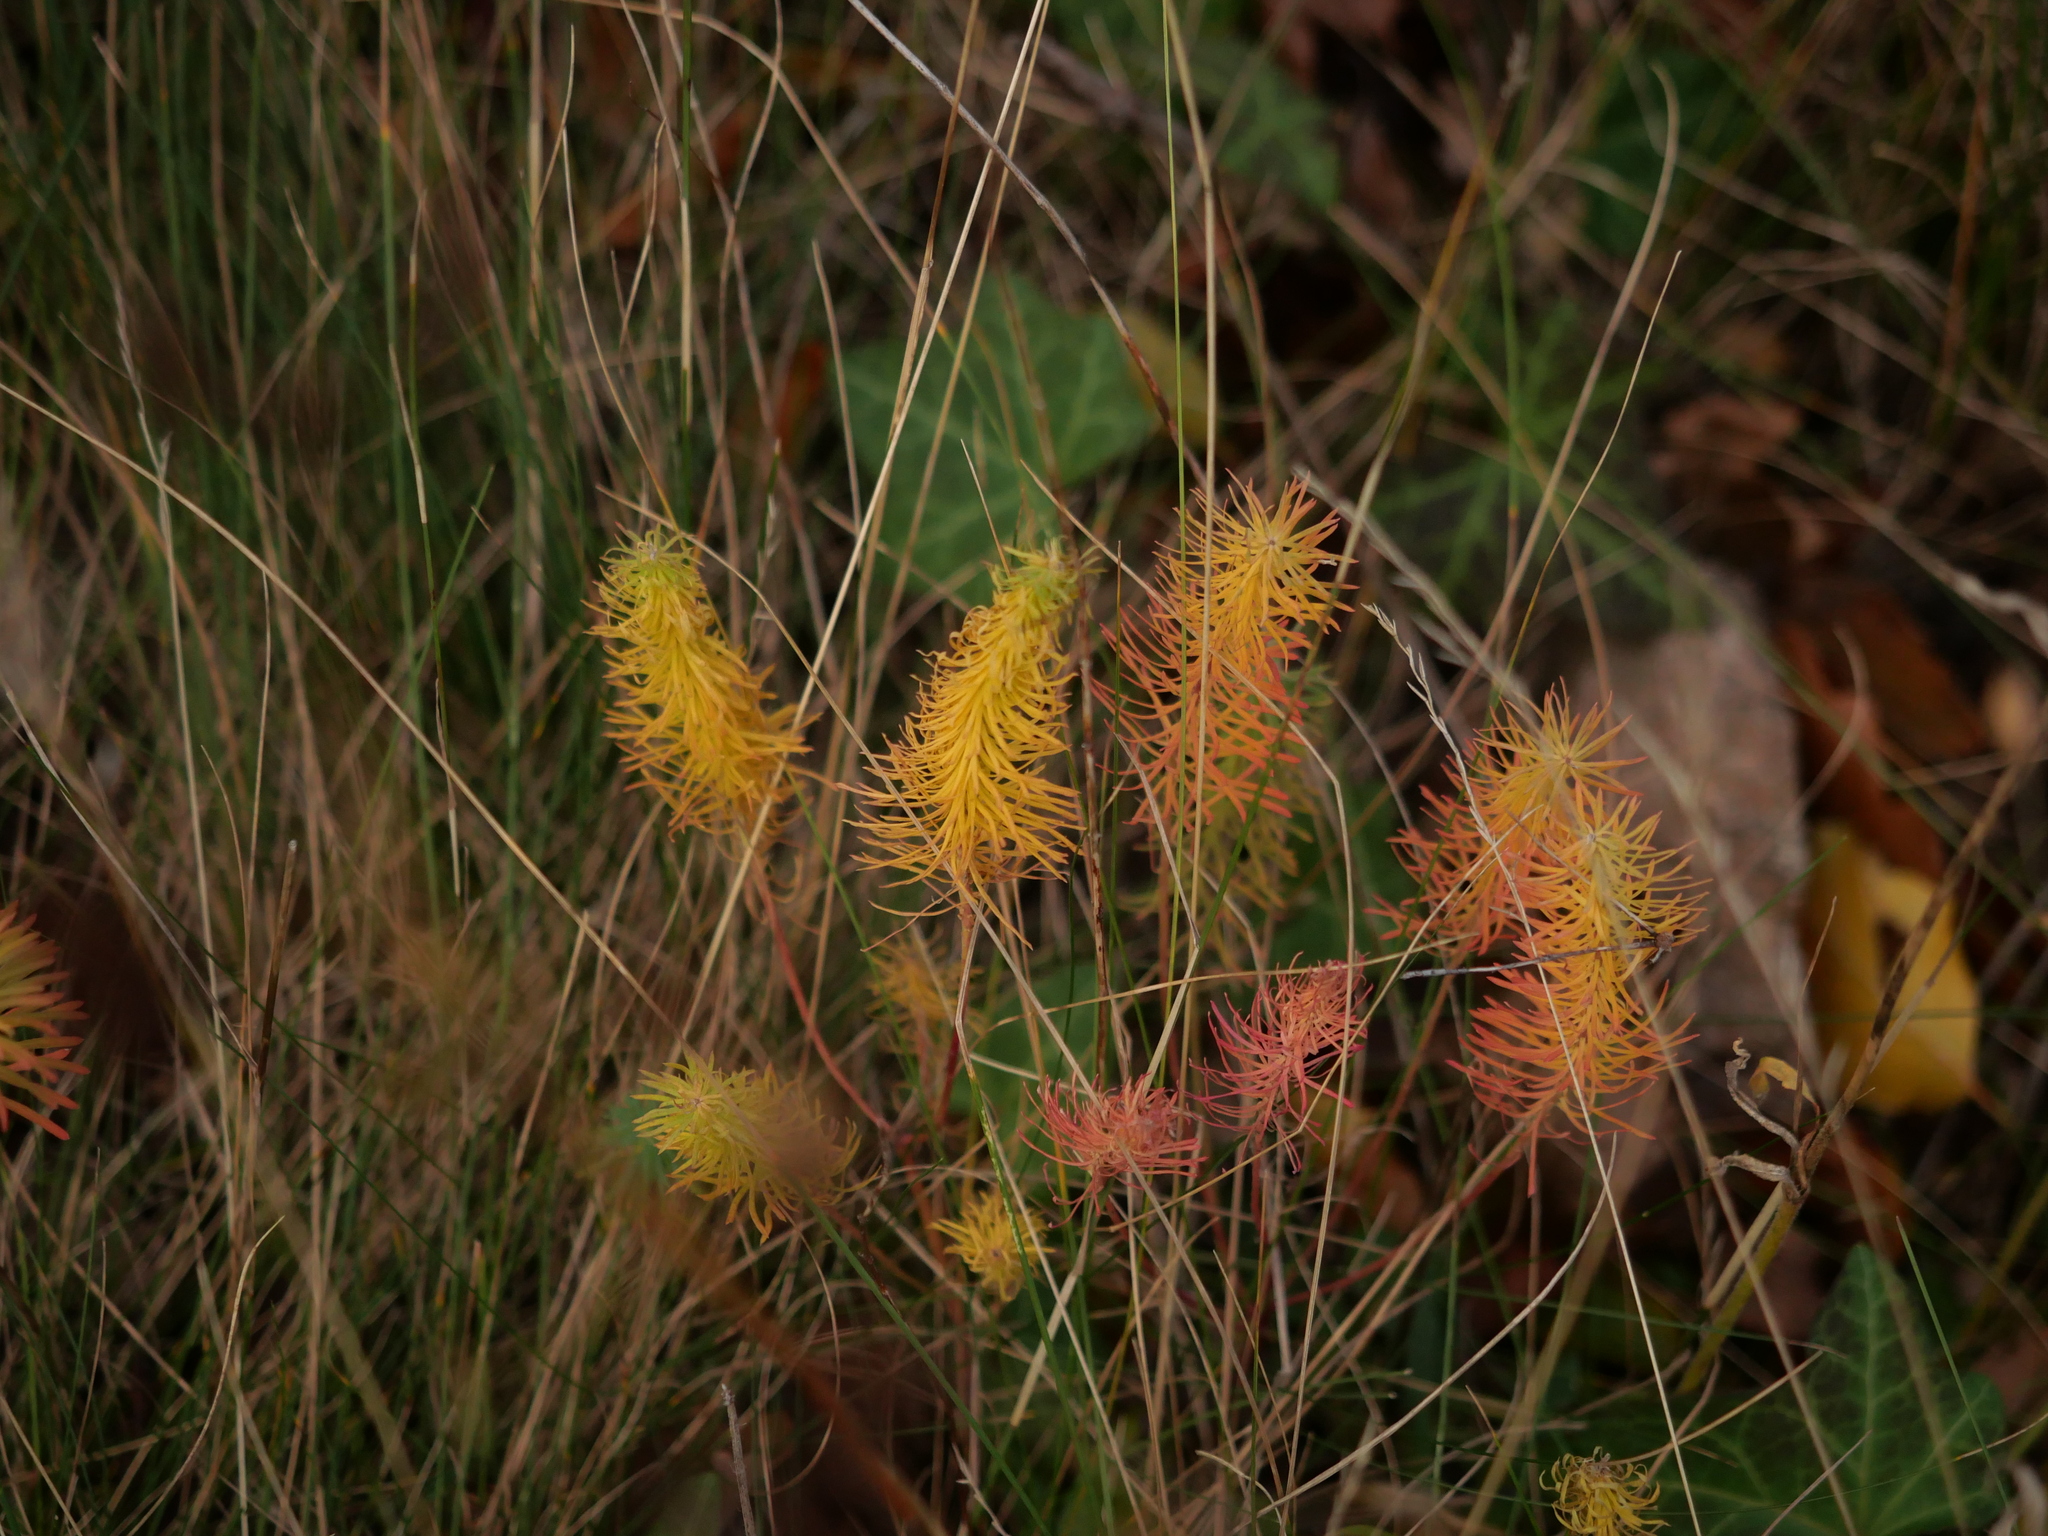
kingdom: Plantae
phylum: Tracheophyta
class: Magnoliopsida
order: Malpighiales
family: Euphorbiaceae
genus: Euphorbia
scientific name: Euphorbia cyparissias
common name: Cypress spurge
